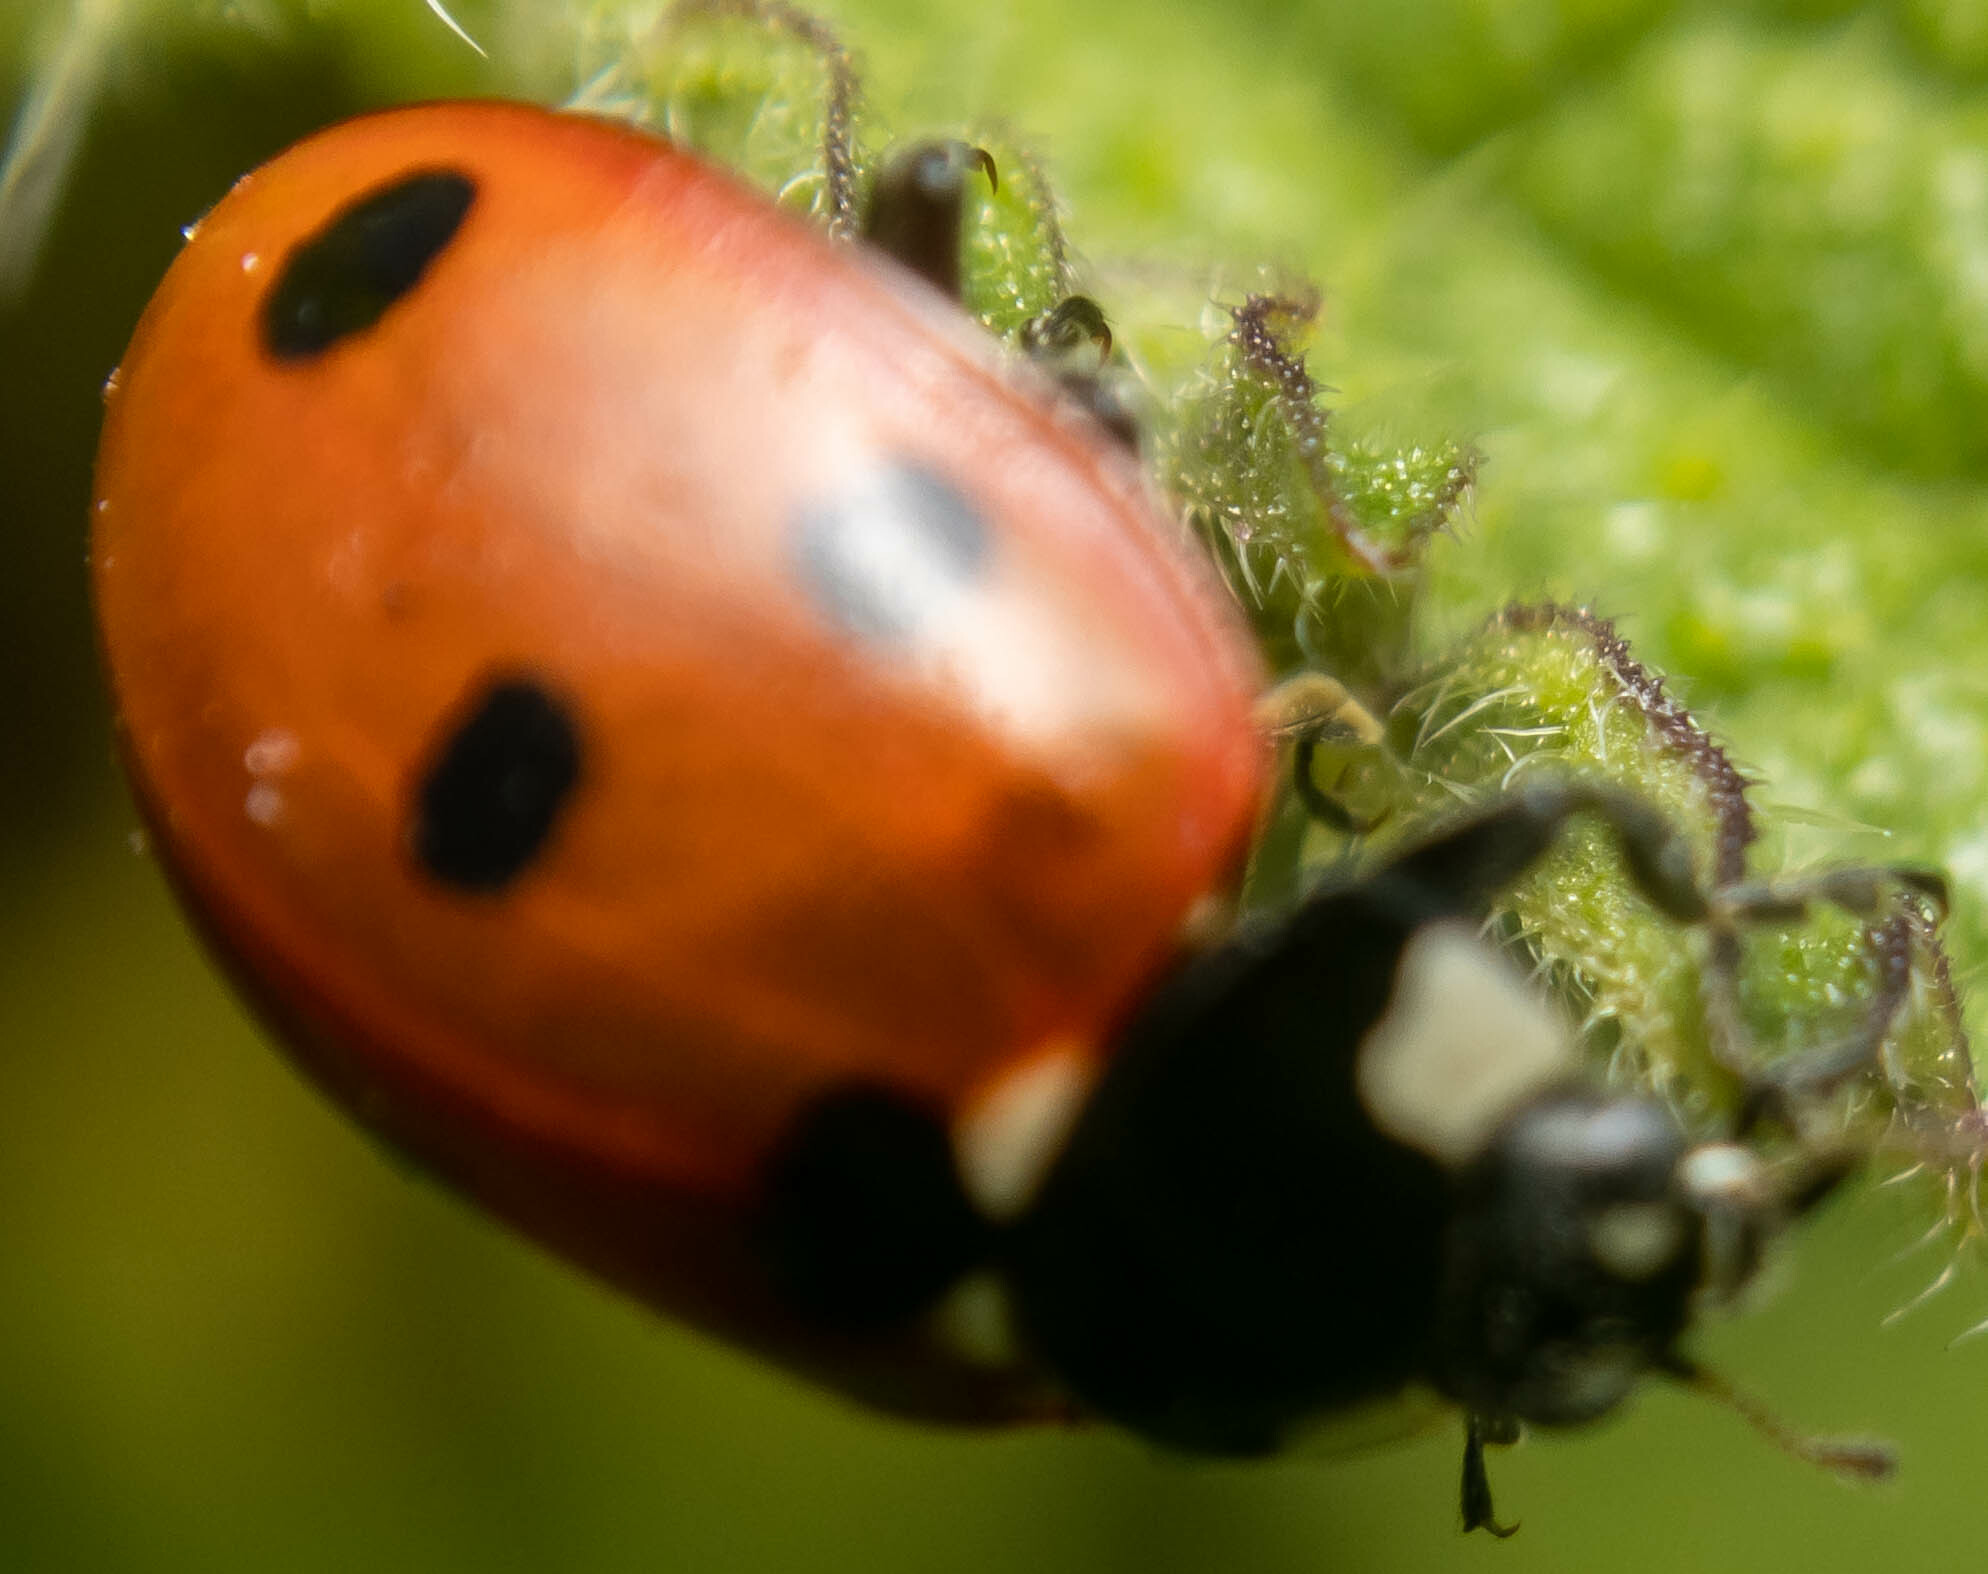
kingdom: Animalia
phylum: Arthropoda
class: Insecta
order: Coleoptera
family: Coccinellidae
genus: Coccinella
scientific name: Coccinella septempunctata
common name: Sevenspotted lady beetle
